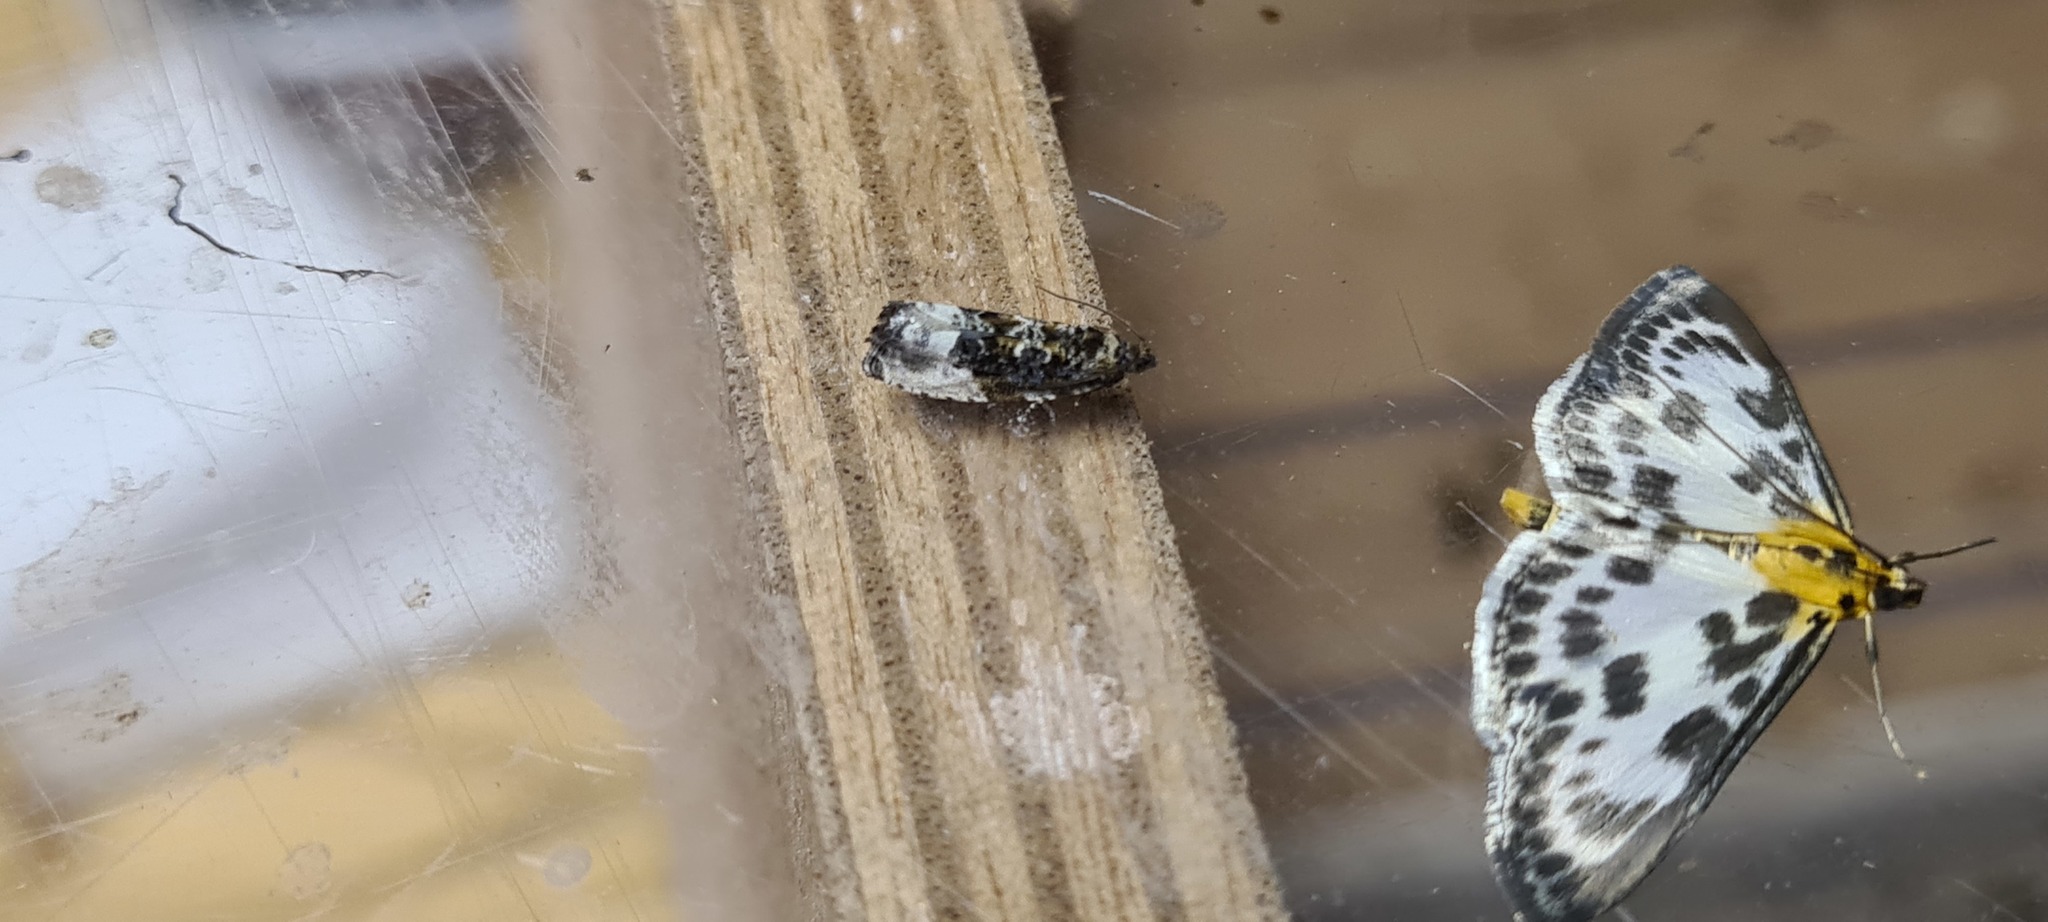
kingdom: Animalia
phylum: Arthropoda
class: Insecta
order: Lepidoptera
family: Tortricidae
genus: Hedya
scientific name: Hedya nubiferana
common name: Marbled orchard tortrix
